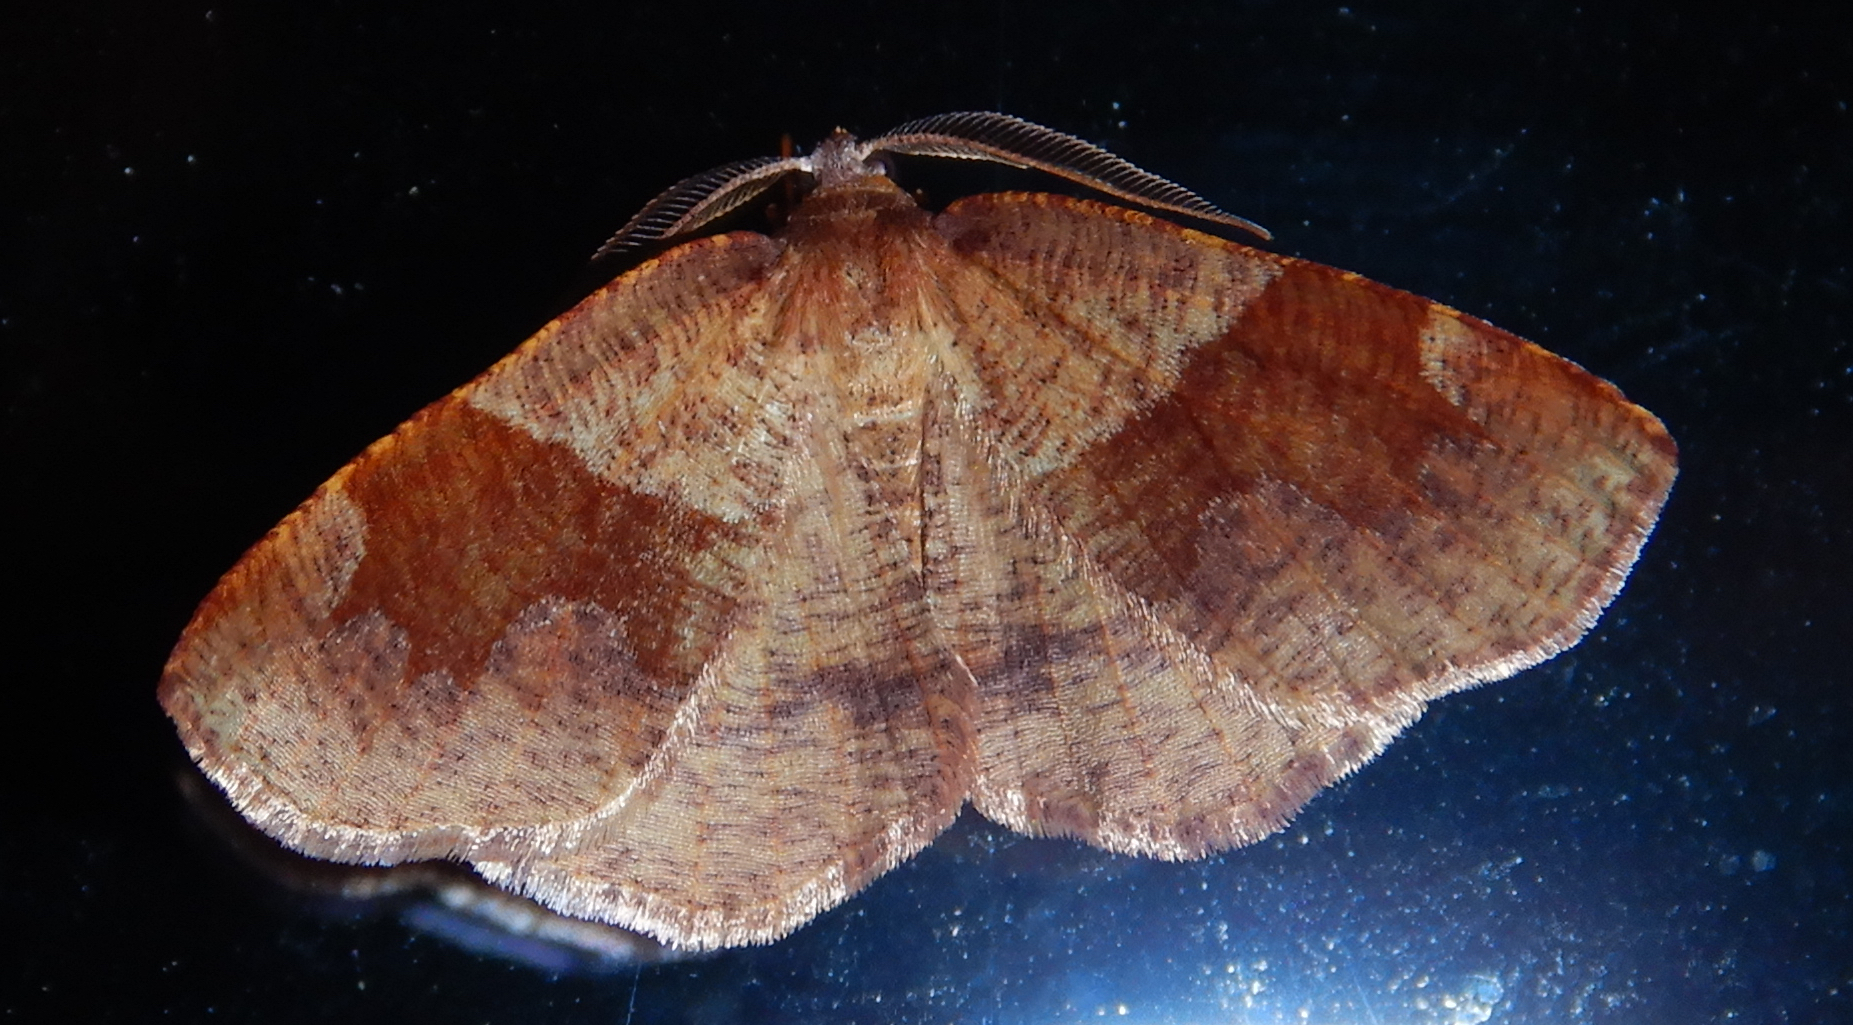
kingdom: Animalia
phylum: Arthropoda
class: Insecta
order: Lepidoptera
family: Geometridae
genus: Plagodis
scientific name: Plagodis pulveraria
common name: Barred umber
